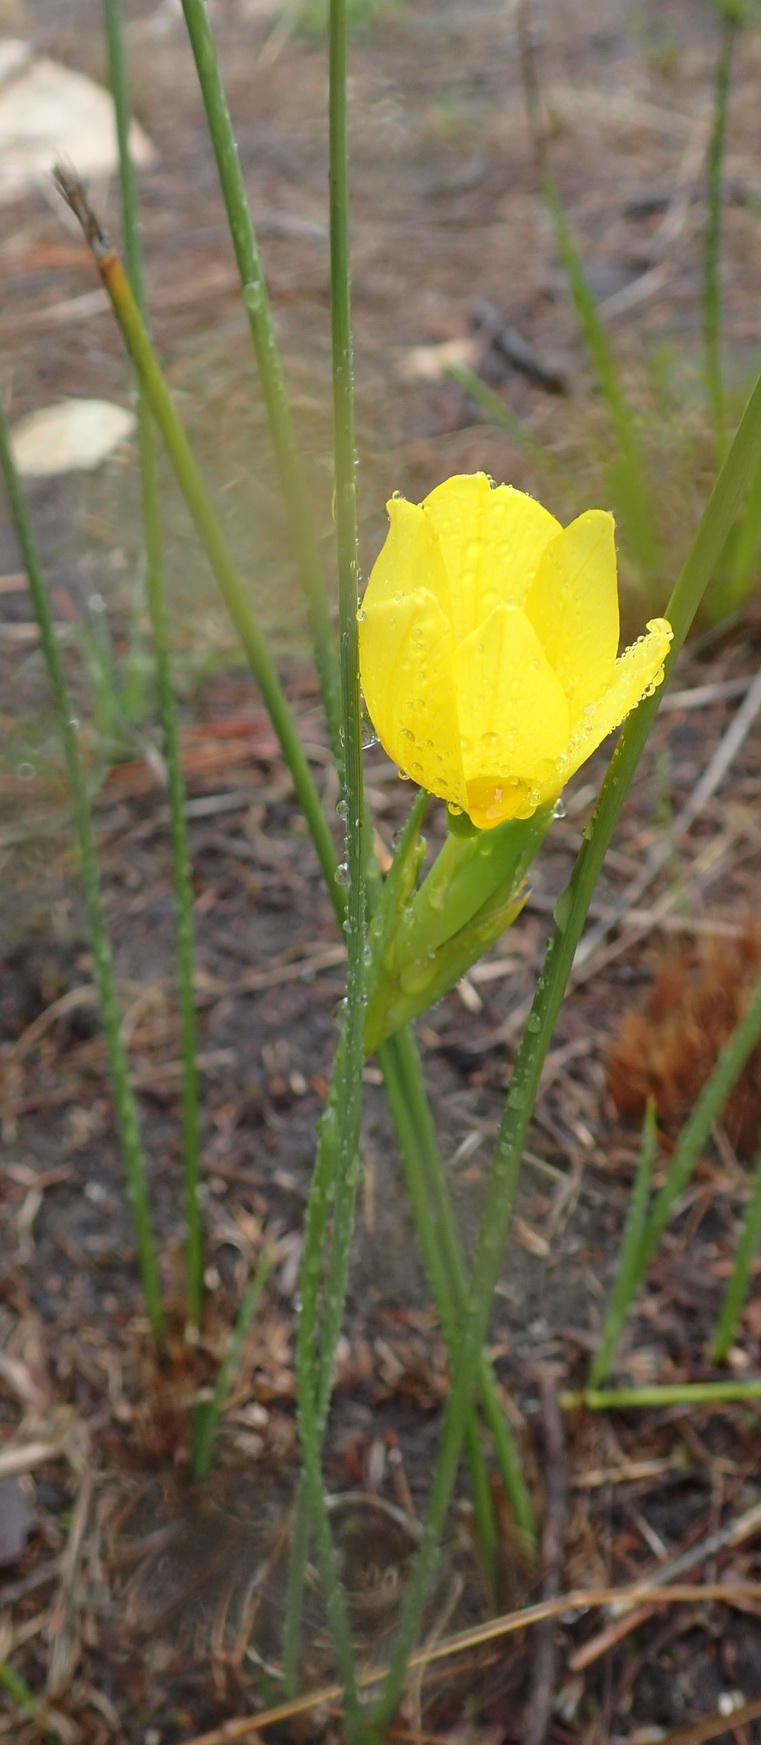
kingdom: Plantae
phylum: Tracheophyta
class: Liliopsida
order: Asparagales
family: Iridaceae
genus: Bobartia
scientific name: Bobartia aphylla
